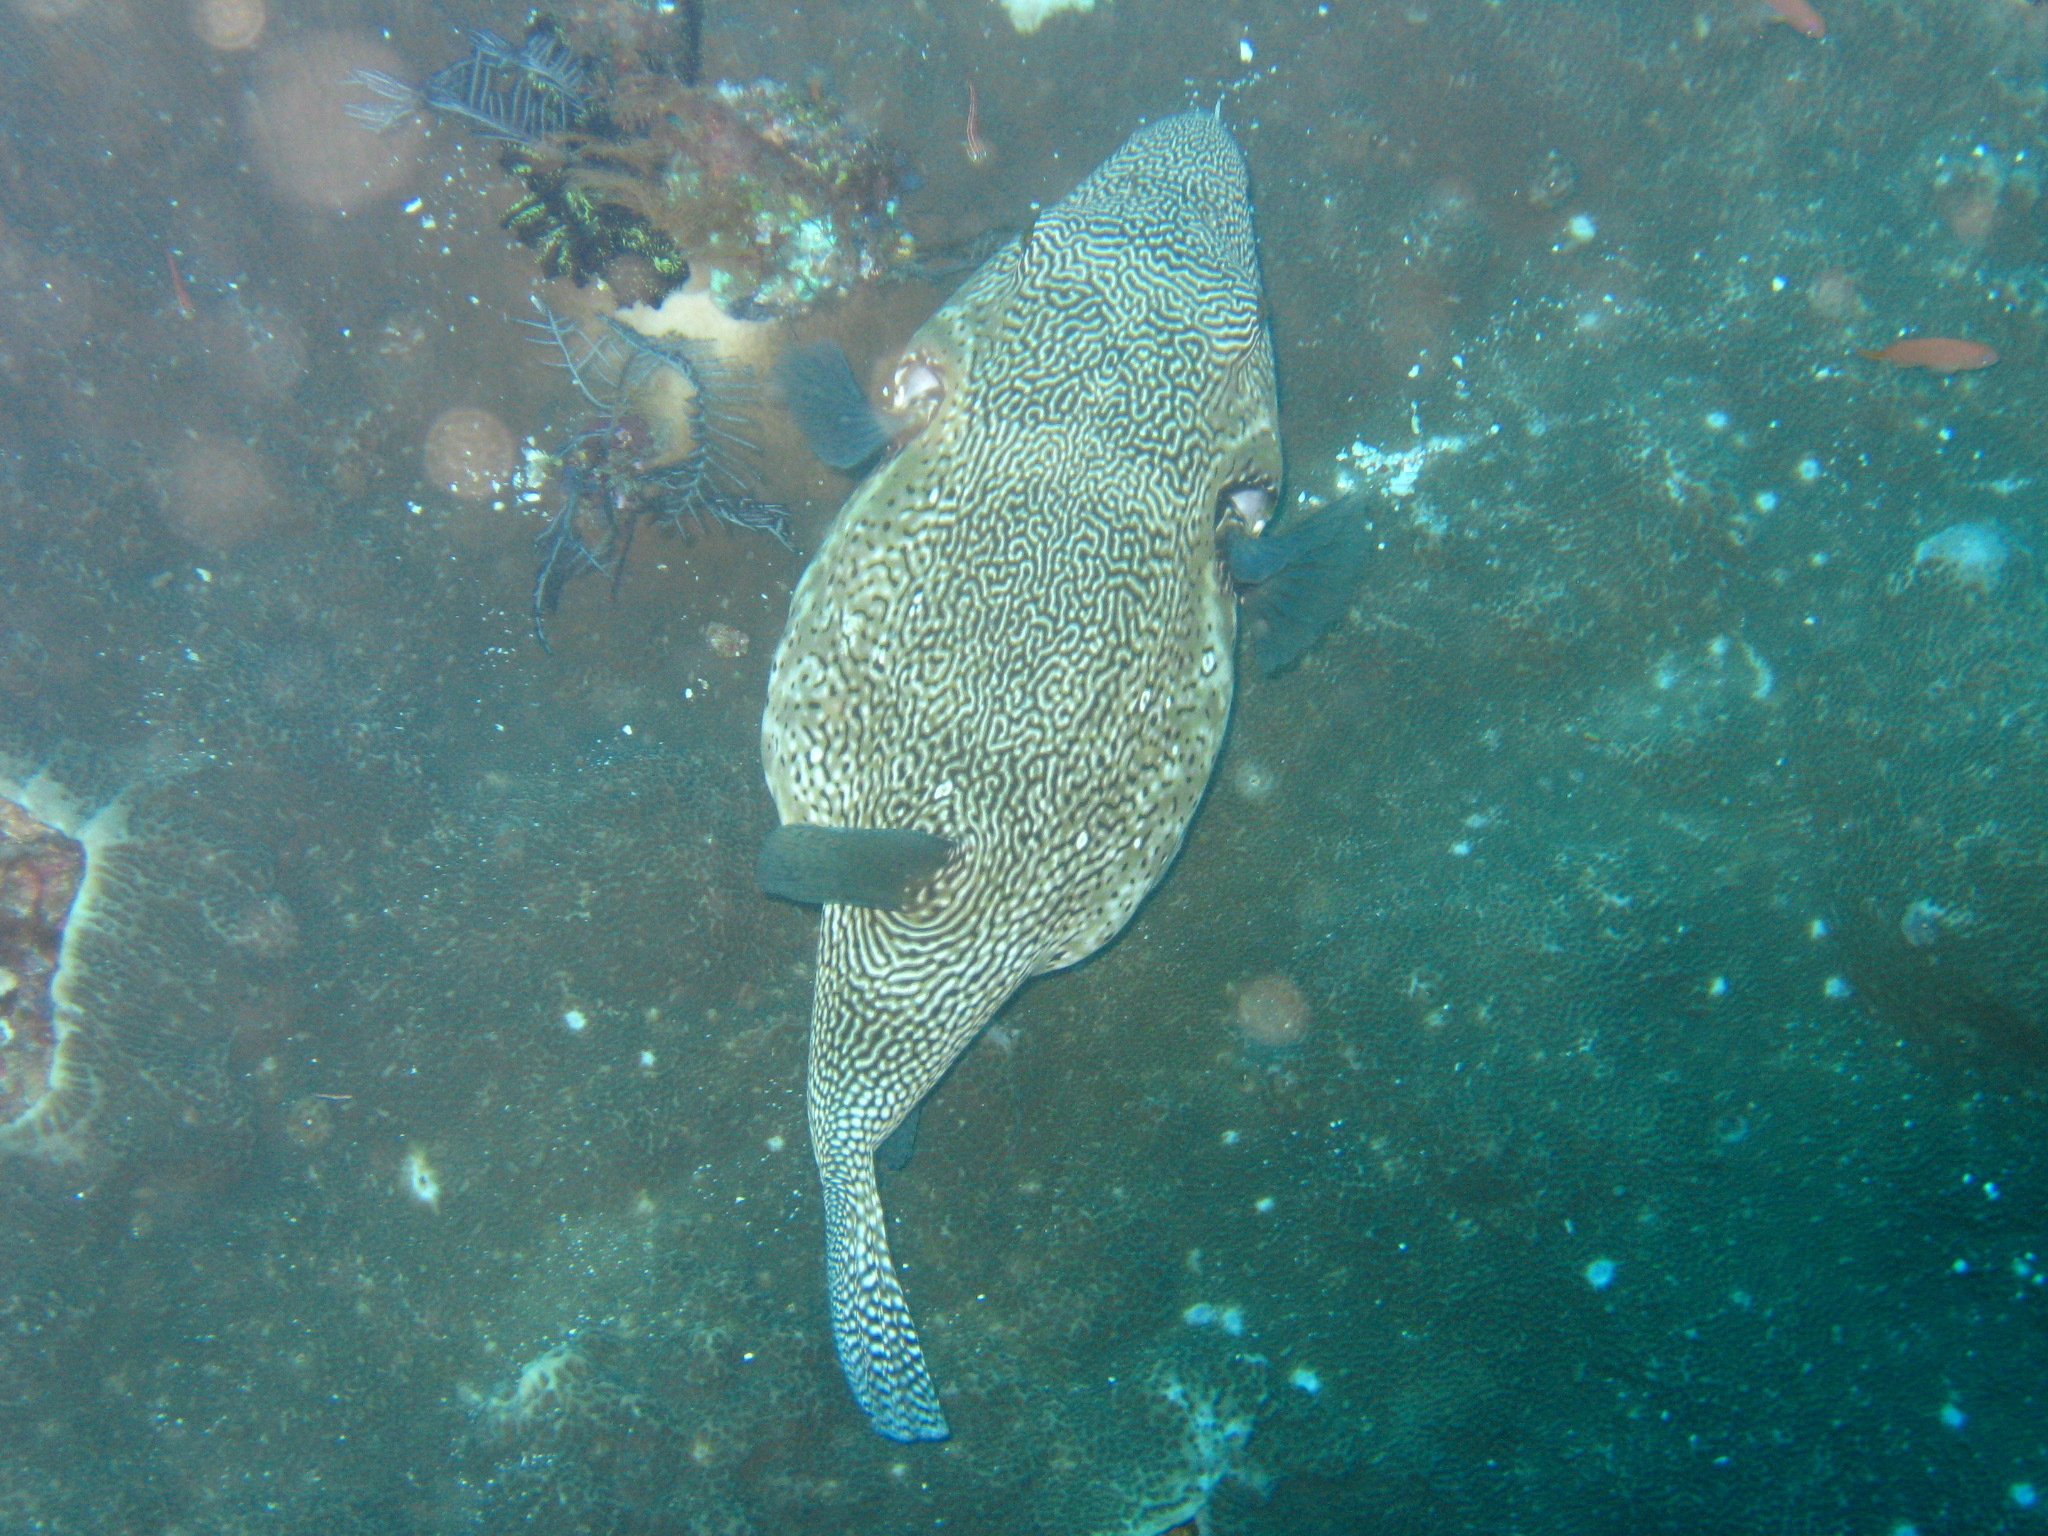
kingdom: Animalia
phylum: Chordata
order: Tetraodontiformes
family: Tetraodontidae
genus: Arothron
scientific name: Arothron mappa
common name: Map blaasop
